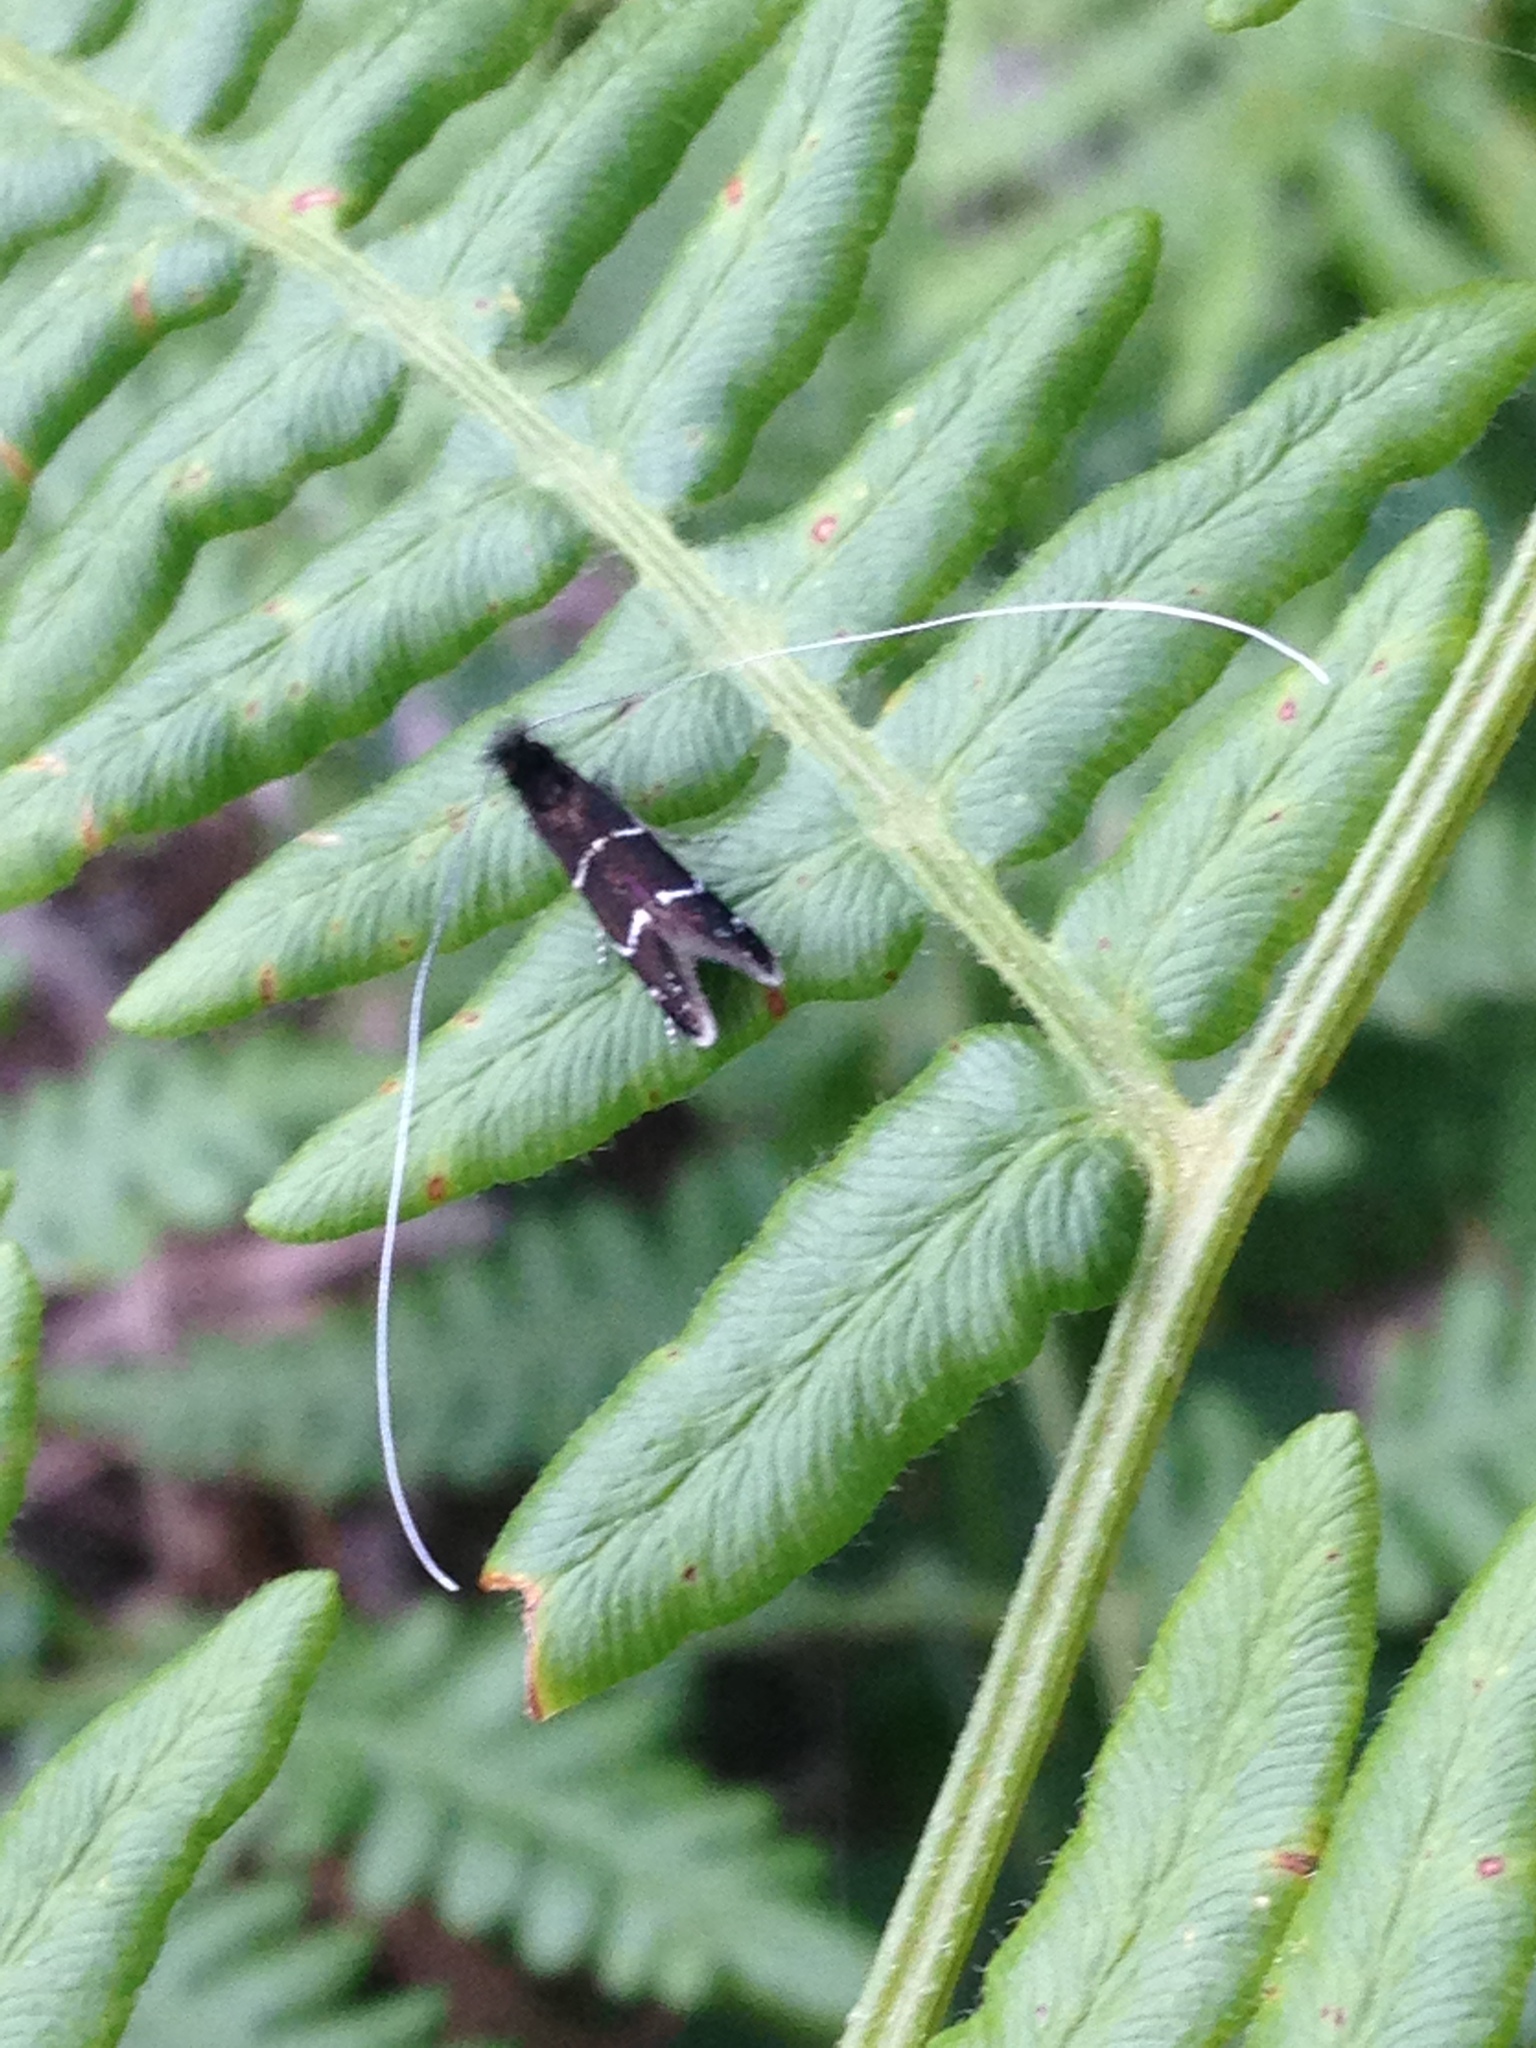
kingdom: Animalia
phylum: Arthropoda
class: Insecta
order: Lepidoptera
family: Adelidae
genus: Adela
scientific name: Adela septentrionella
